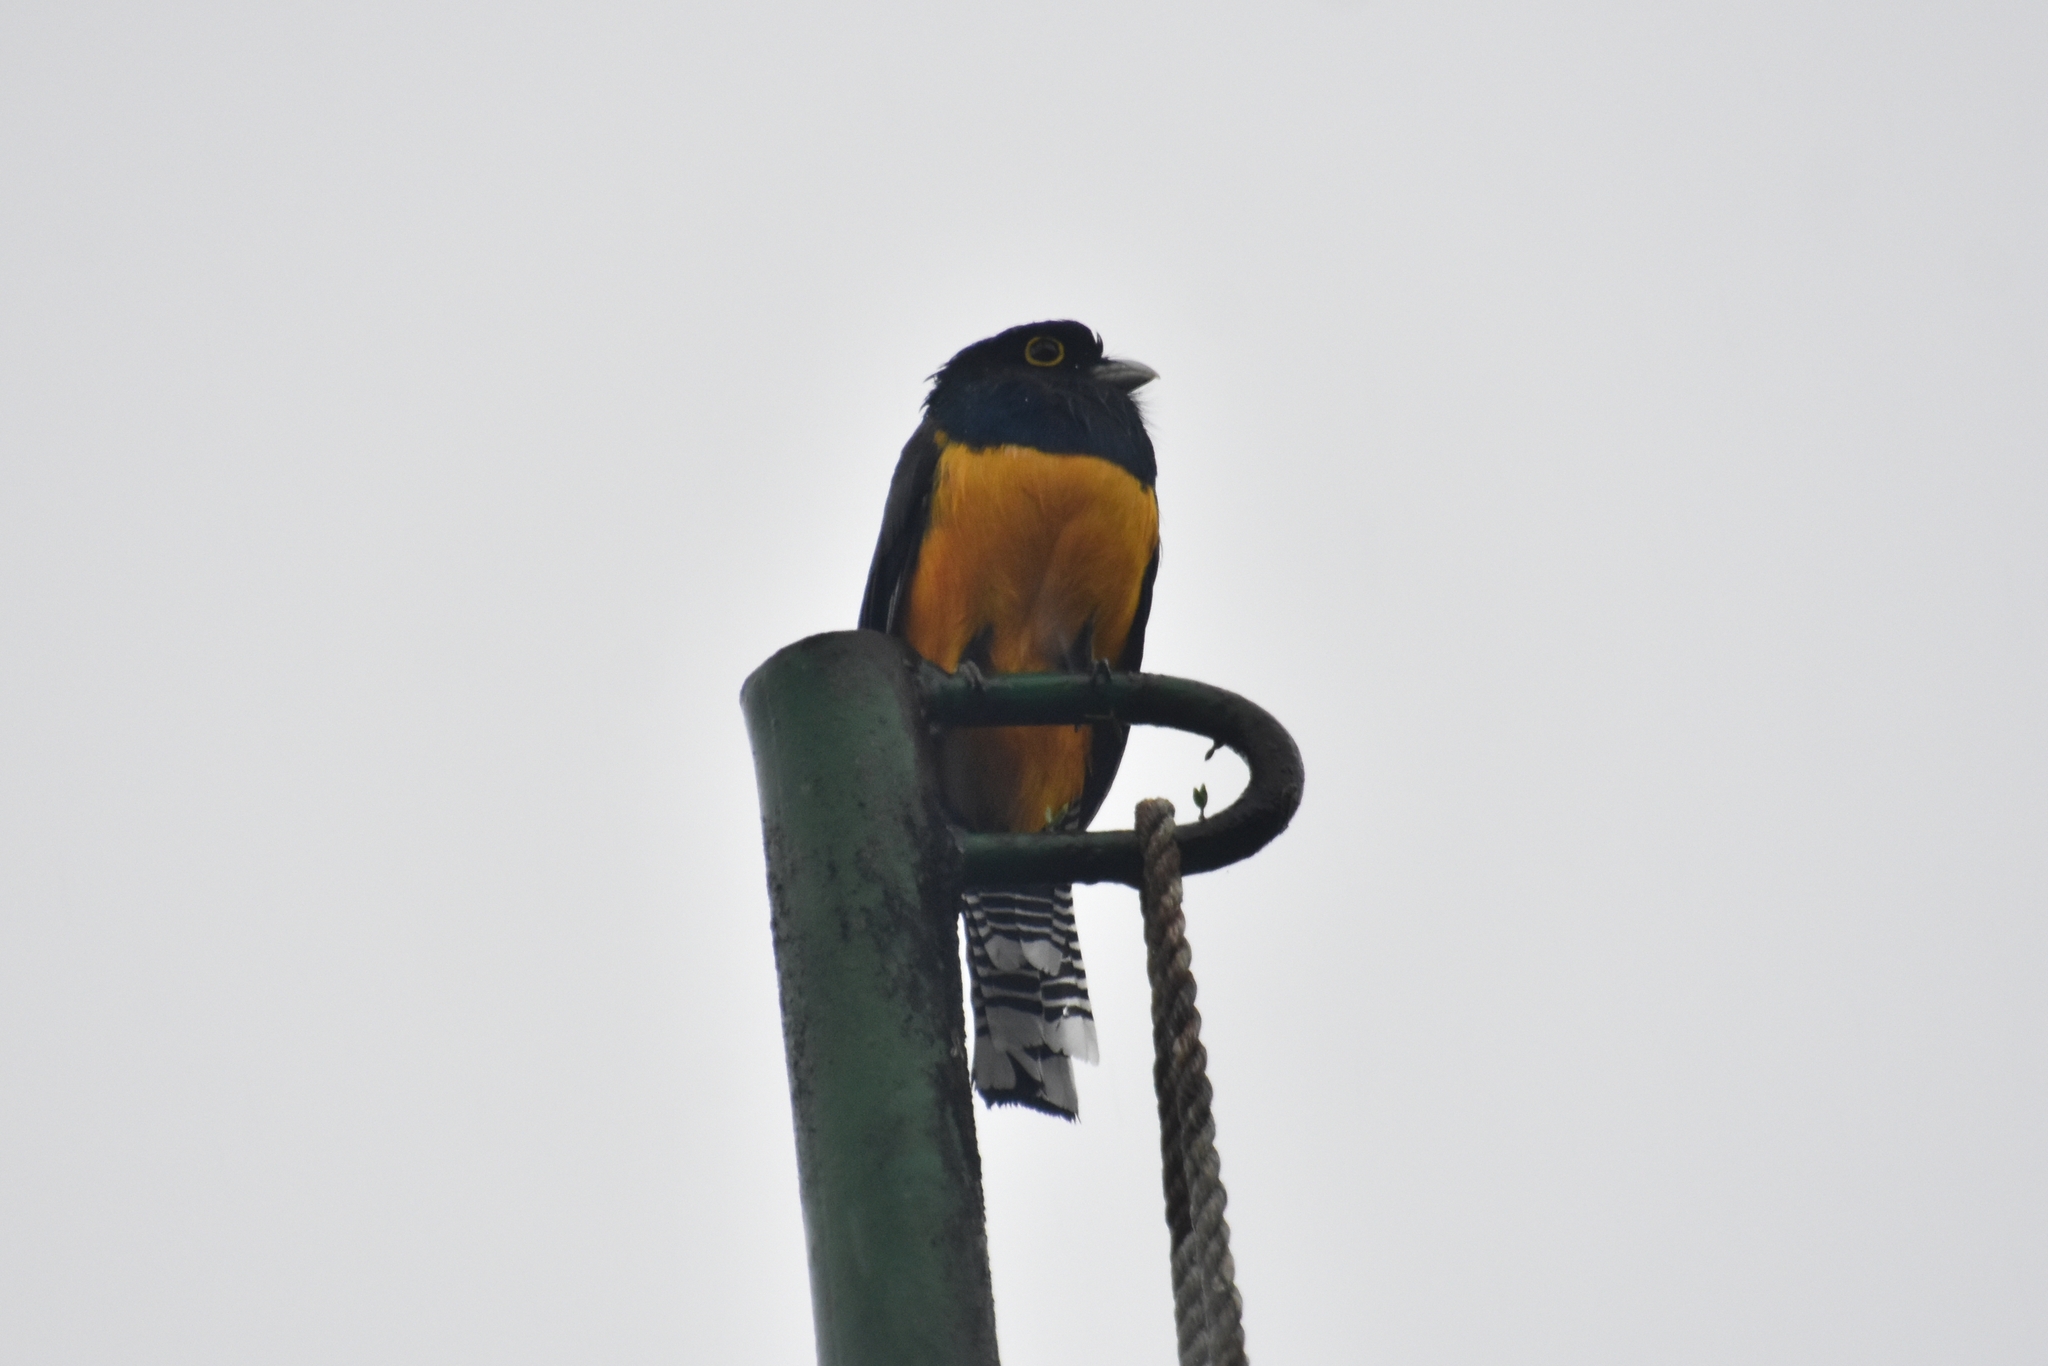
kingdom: Animalia
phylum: Chordata
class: Aves
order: Trogoniformes
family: Trogonidae
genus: Trogon
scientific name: Trogon caligatus
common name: Gartered trogon
